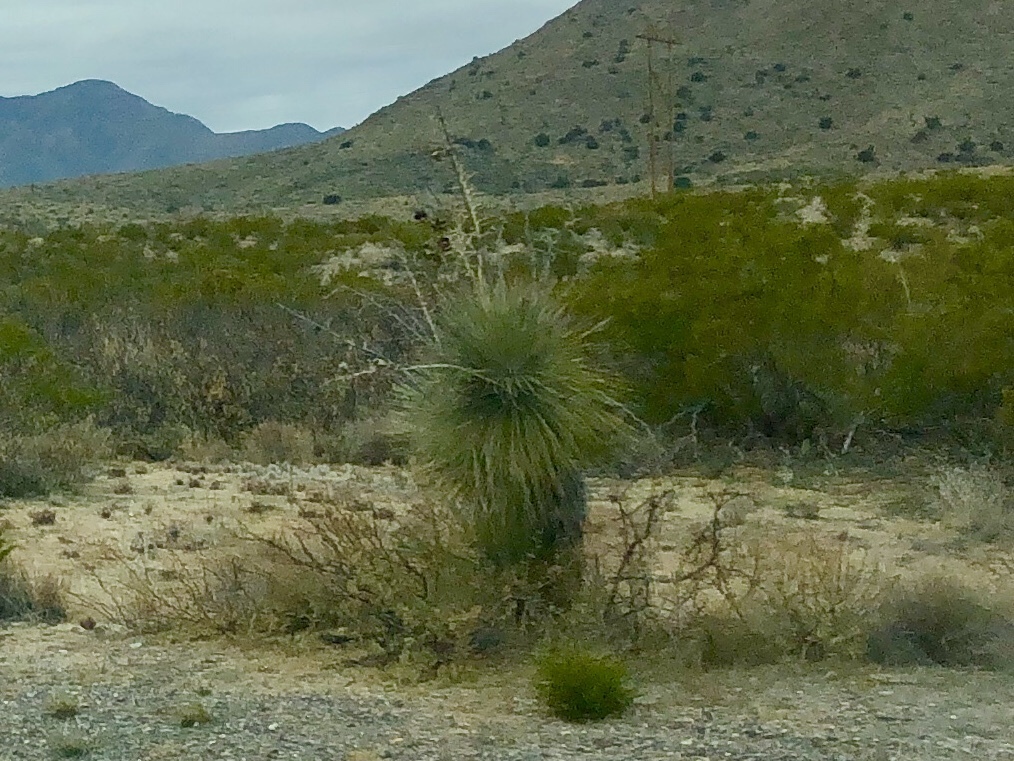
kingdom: Plantae
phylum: Tracheophyta
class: Liliopsida
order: Asparagales
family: Asparagaceae
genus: Yucca
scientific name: Yucca elata
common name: Palmella
